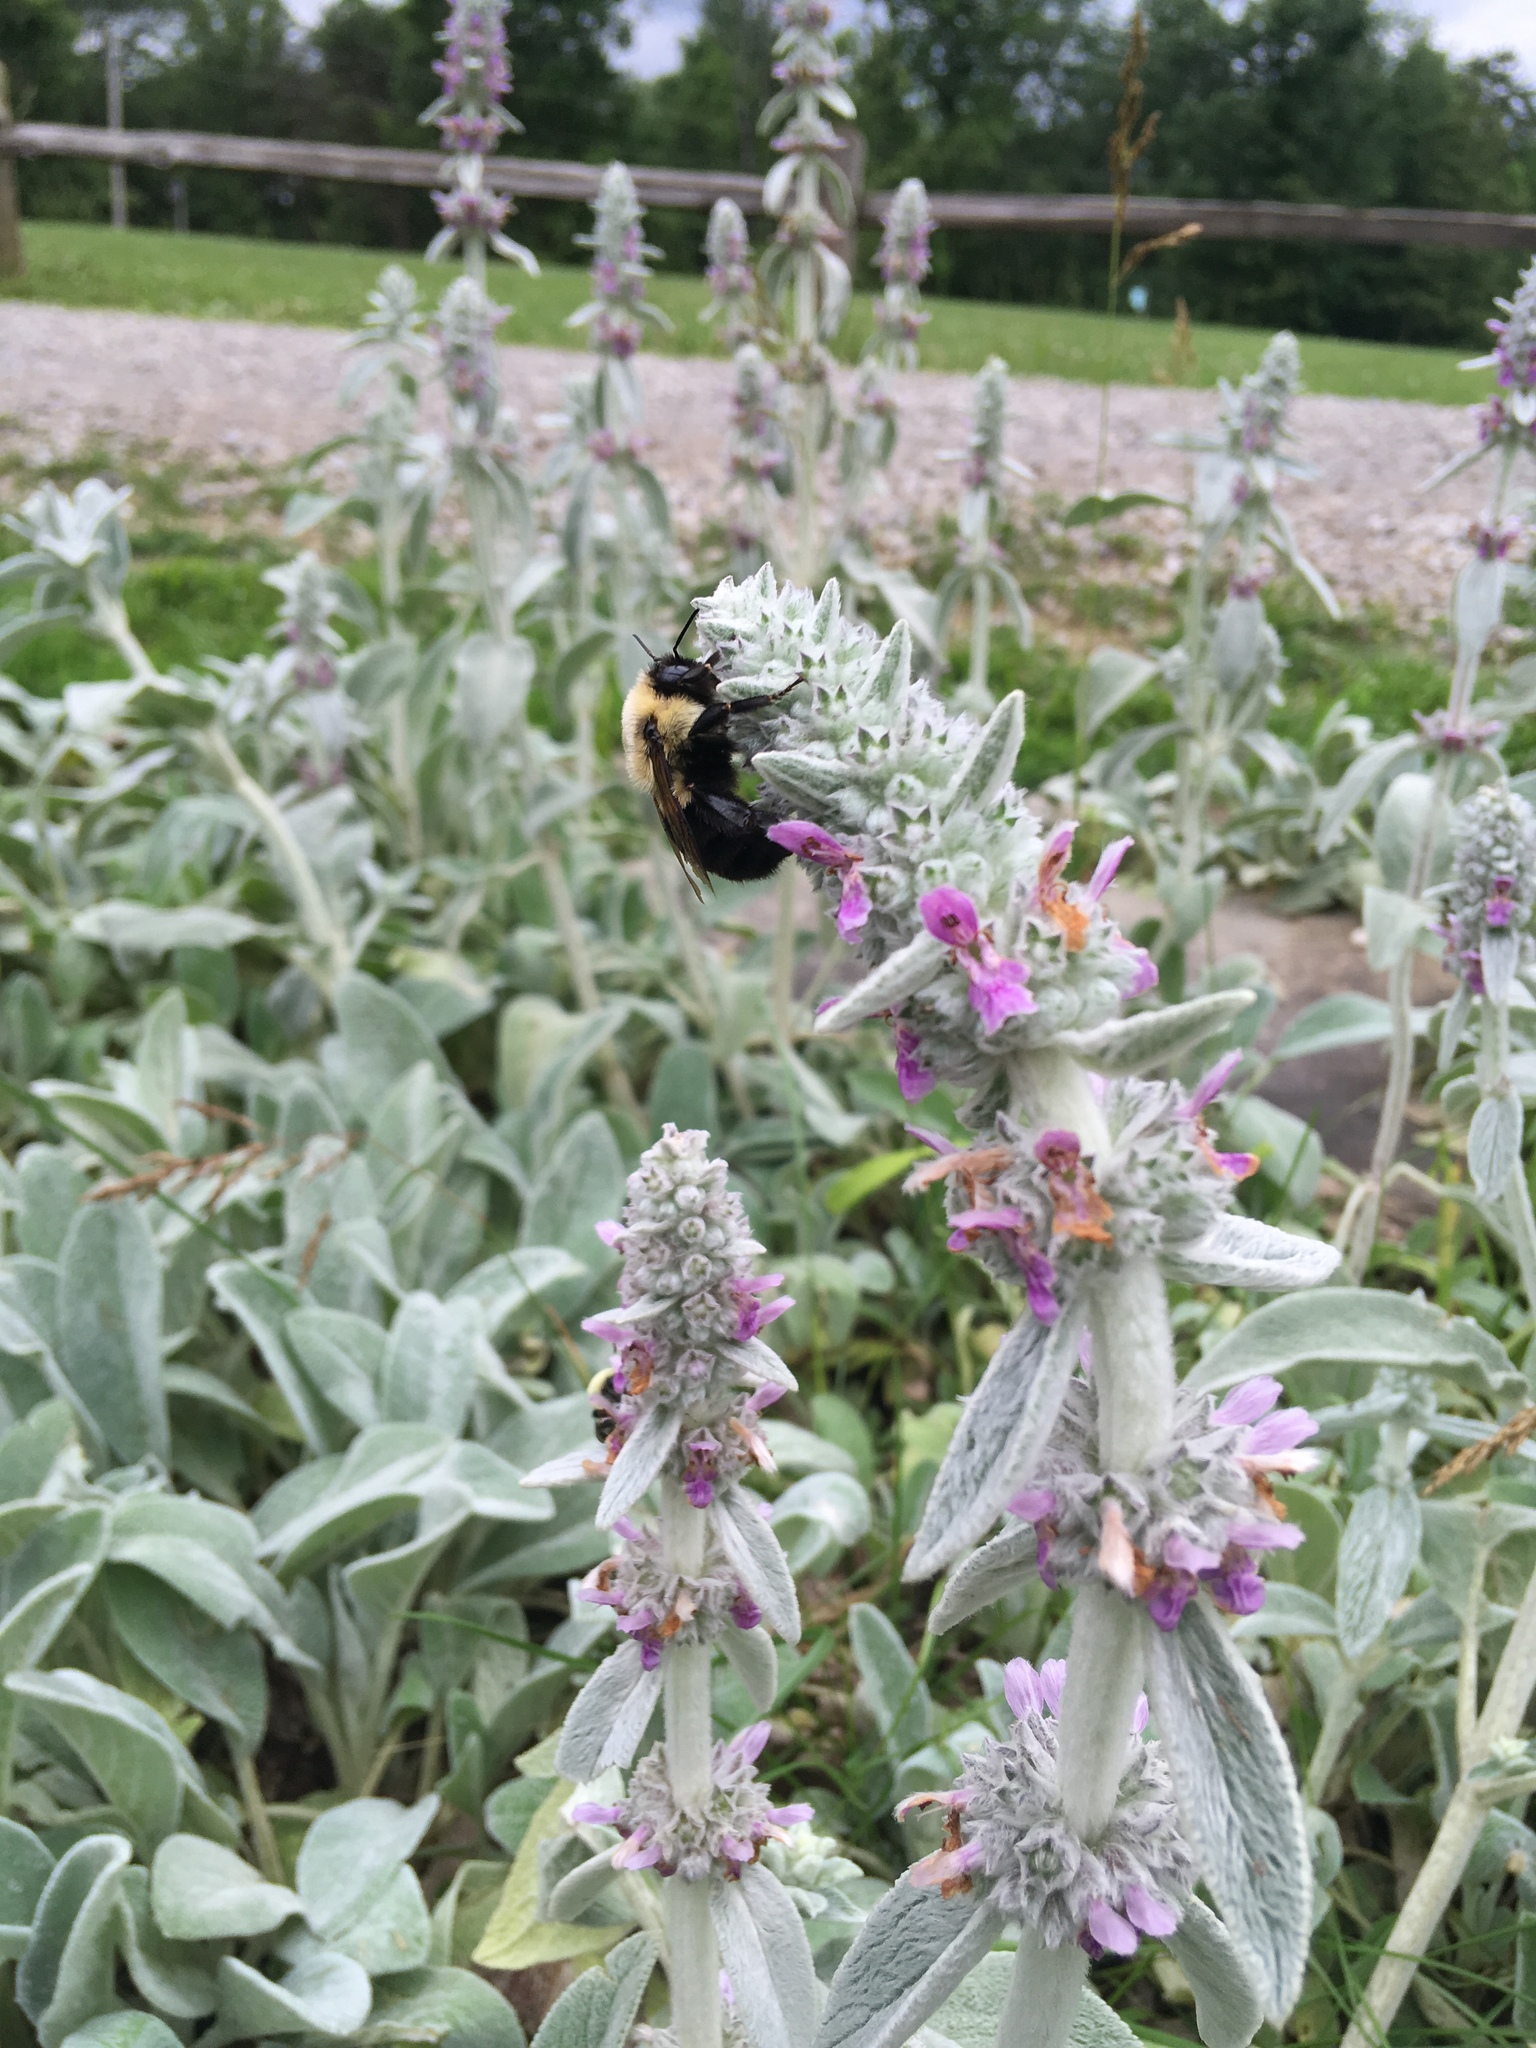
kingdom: Animalia
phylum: Arthropoda
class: Insecta
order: Hymenoptera
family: Apidae
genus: Bombus
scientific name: Bombus impatiens
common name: Common eastern bumble bee
